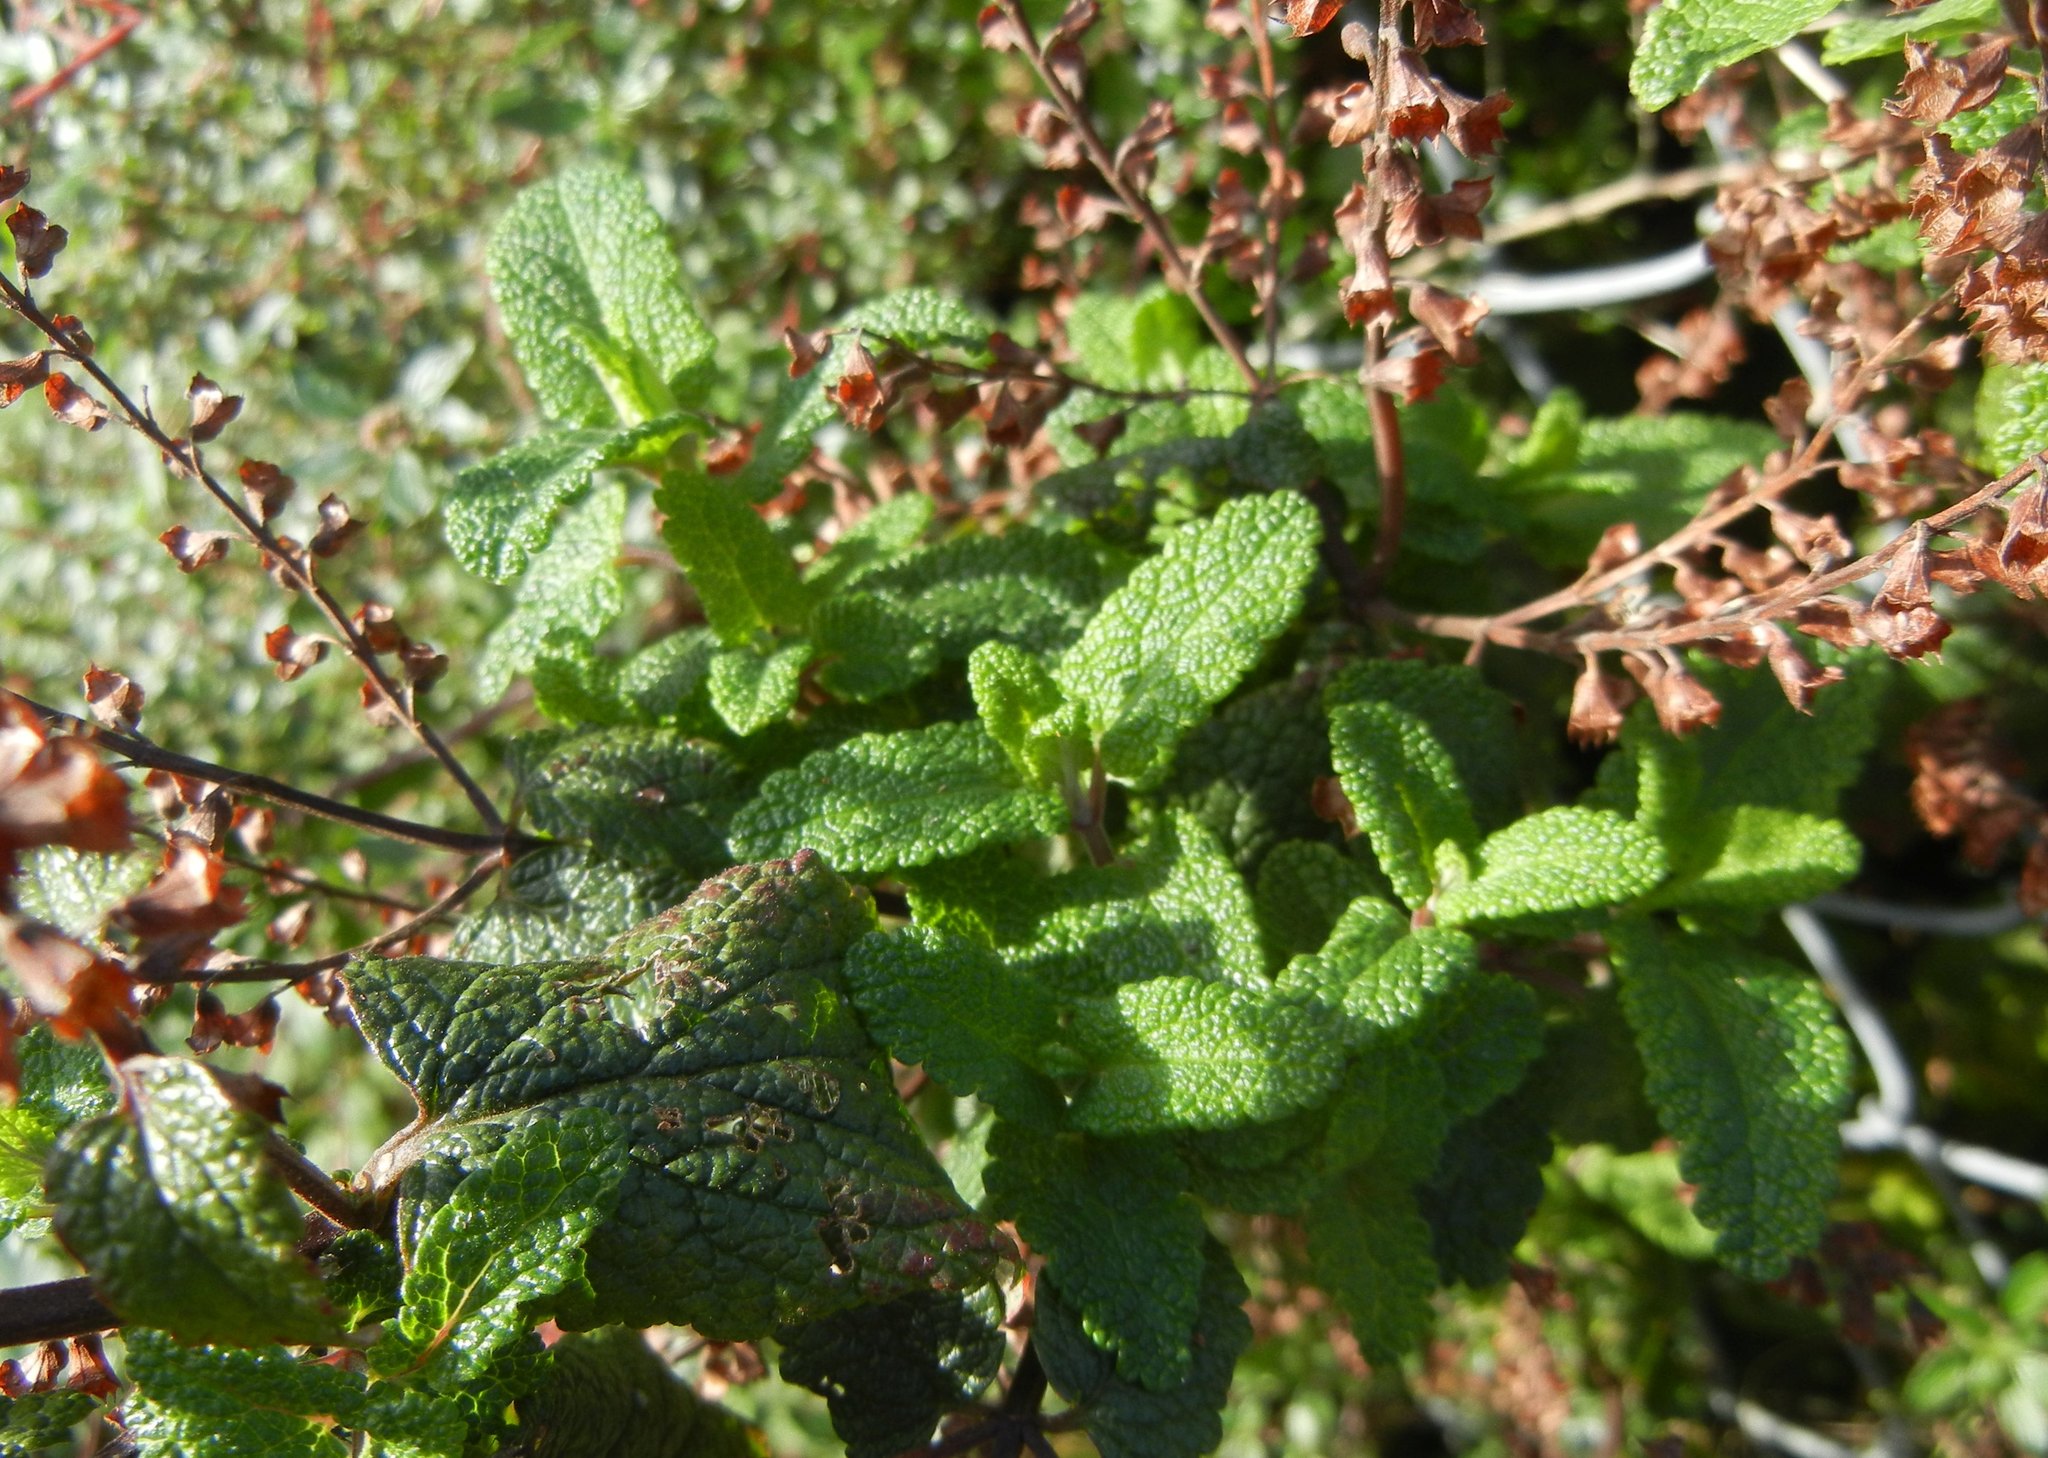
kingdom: Plantae
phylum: Tracheophyta
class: Magnoliopsida
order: Lamiales
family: Lamiaceae
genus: Teucrium
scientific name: Teucrium scorodonia
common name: Woodland germander
